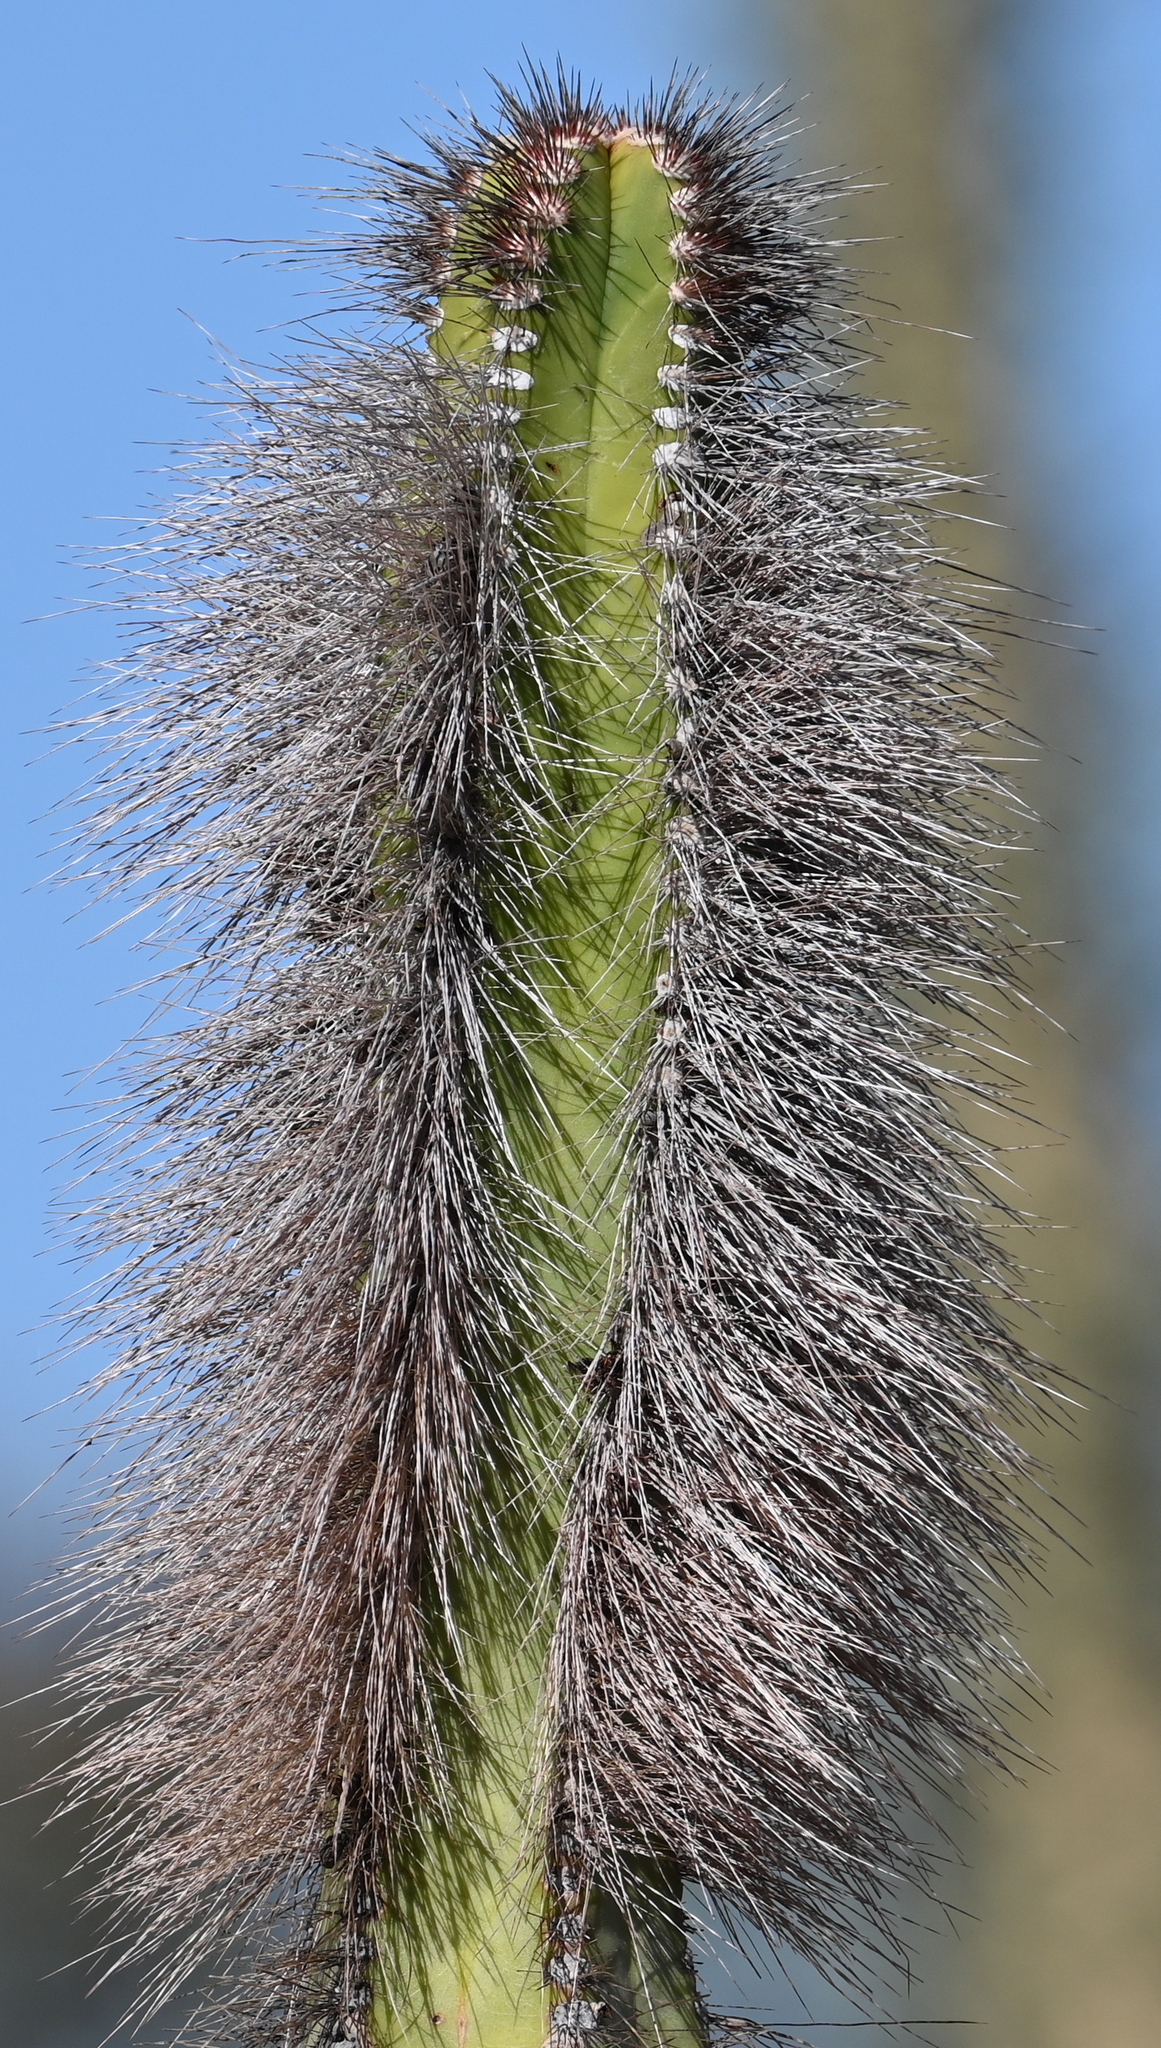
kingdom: Plantae
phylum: Tracheophyta
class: Magnoliopsida
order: Caryophyllales
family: Cactaceae
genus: Pachycereus
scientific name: Pachycereus schottii
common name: Senita cactus
